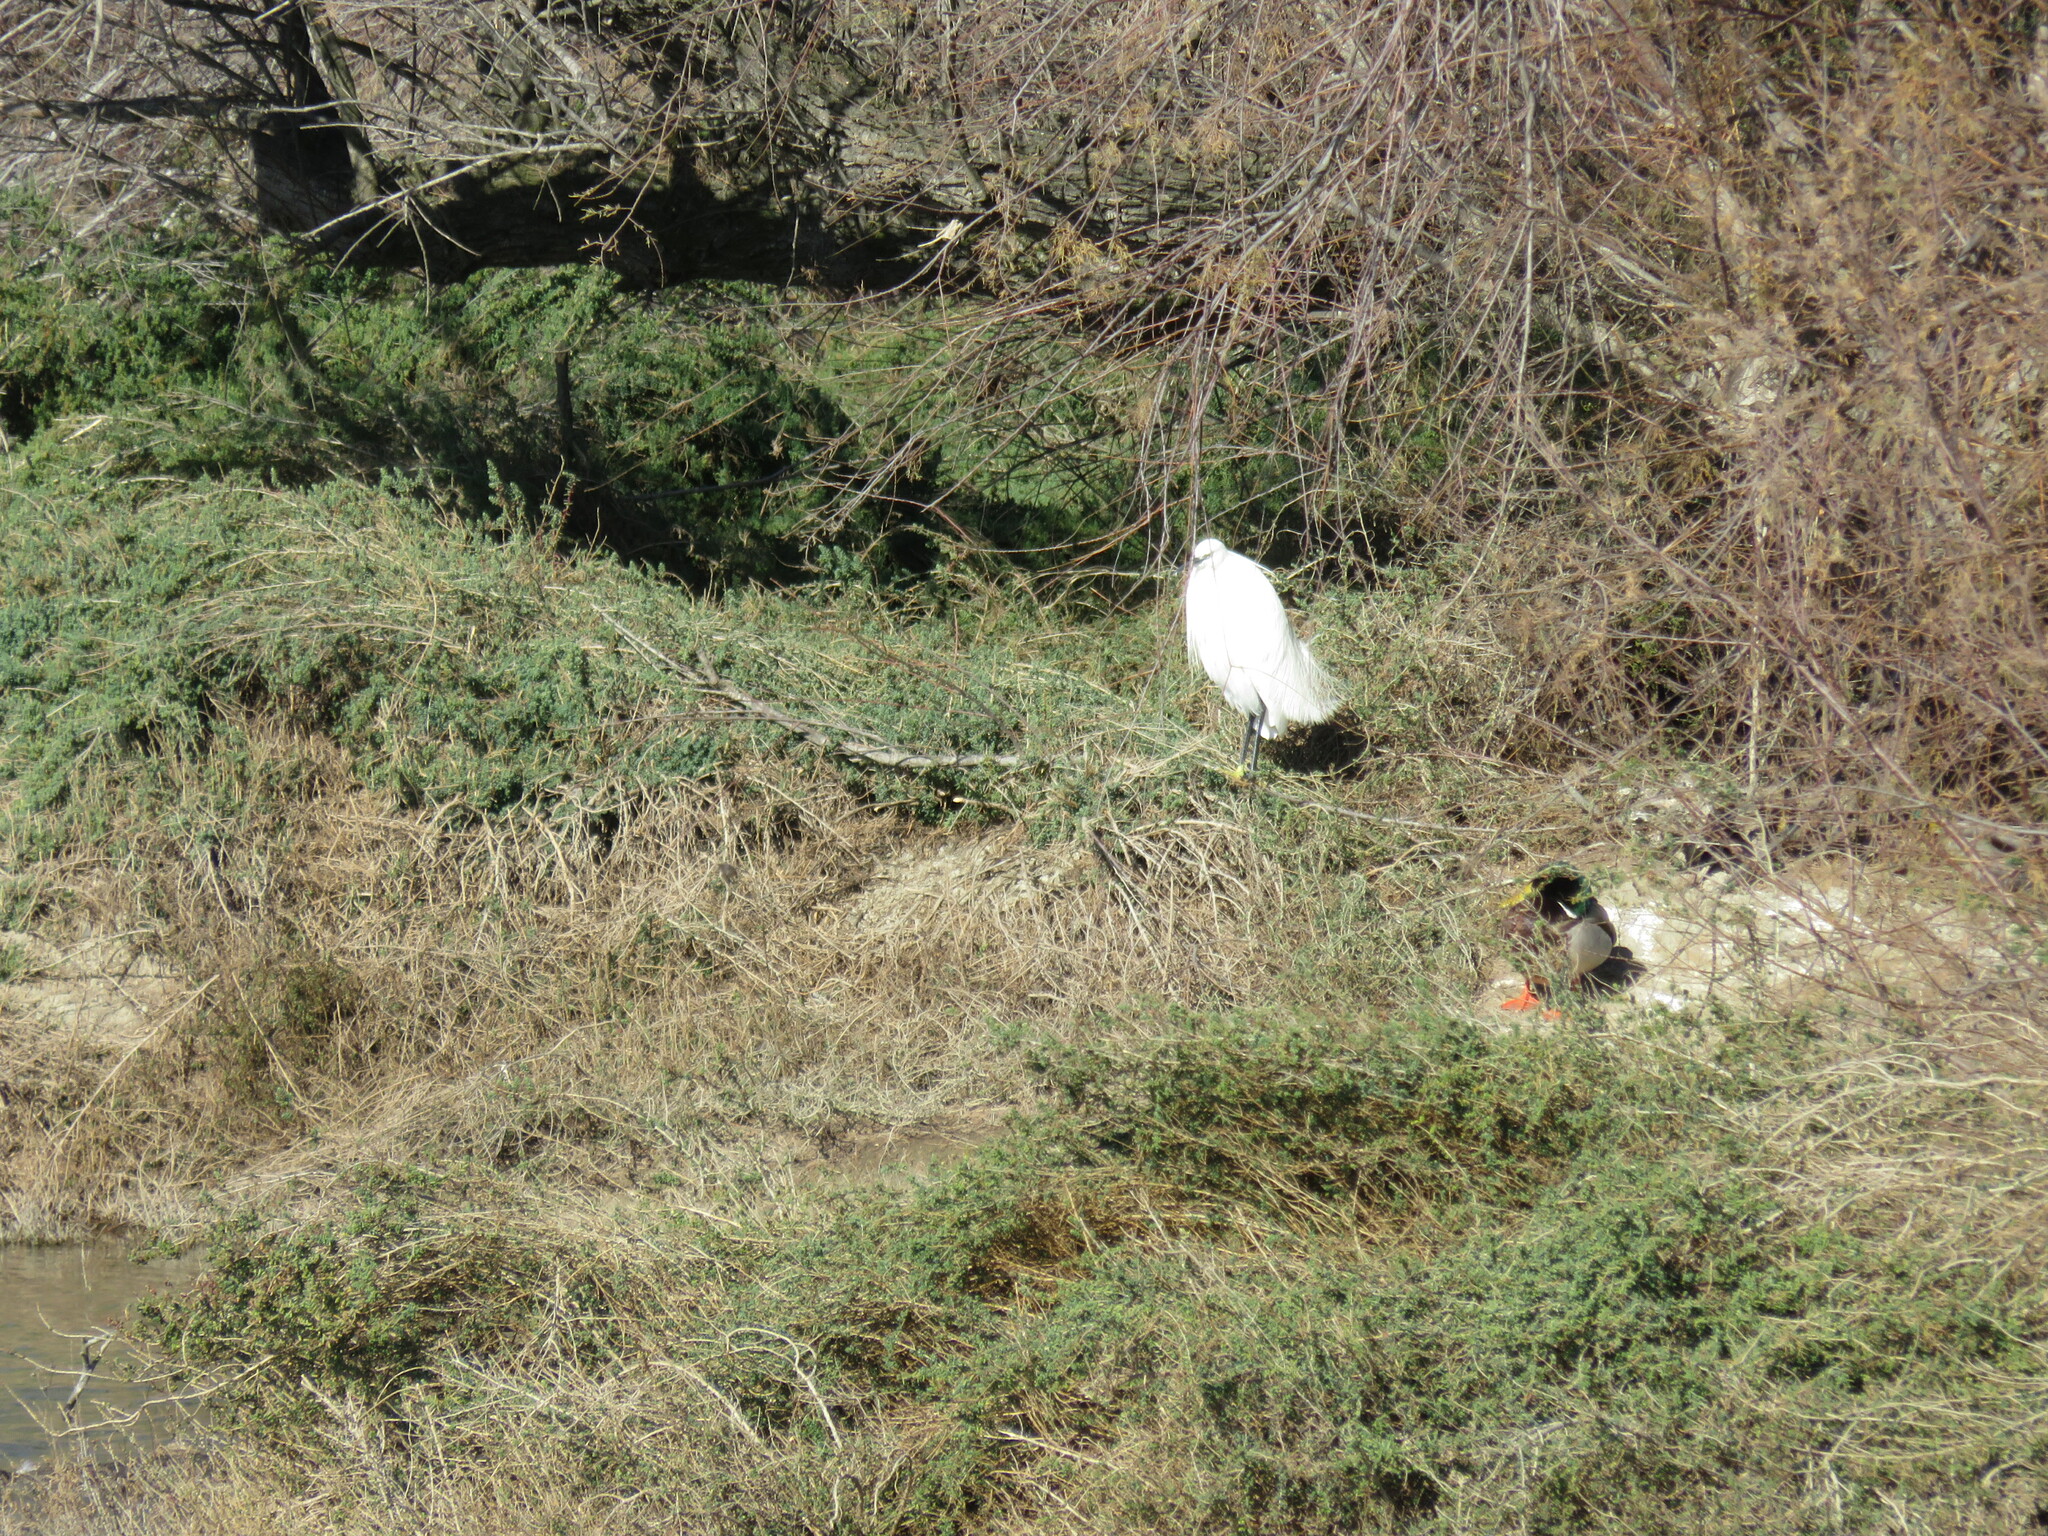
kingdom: Animalia
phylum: Chordata
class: Aves
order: Pelecaniformes
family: Ardeidae
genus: Egretta
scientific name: Egretta garzetta
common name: Little egret
